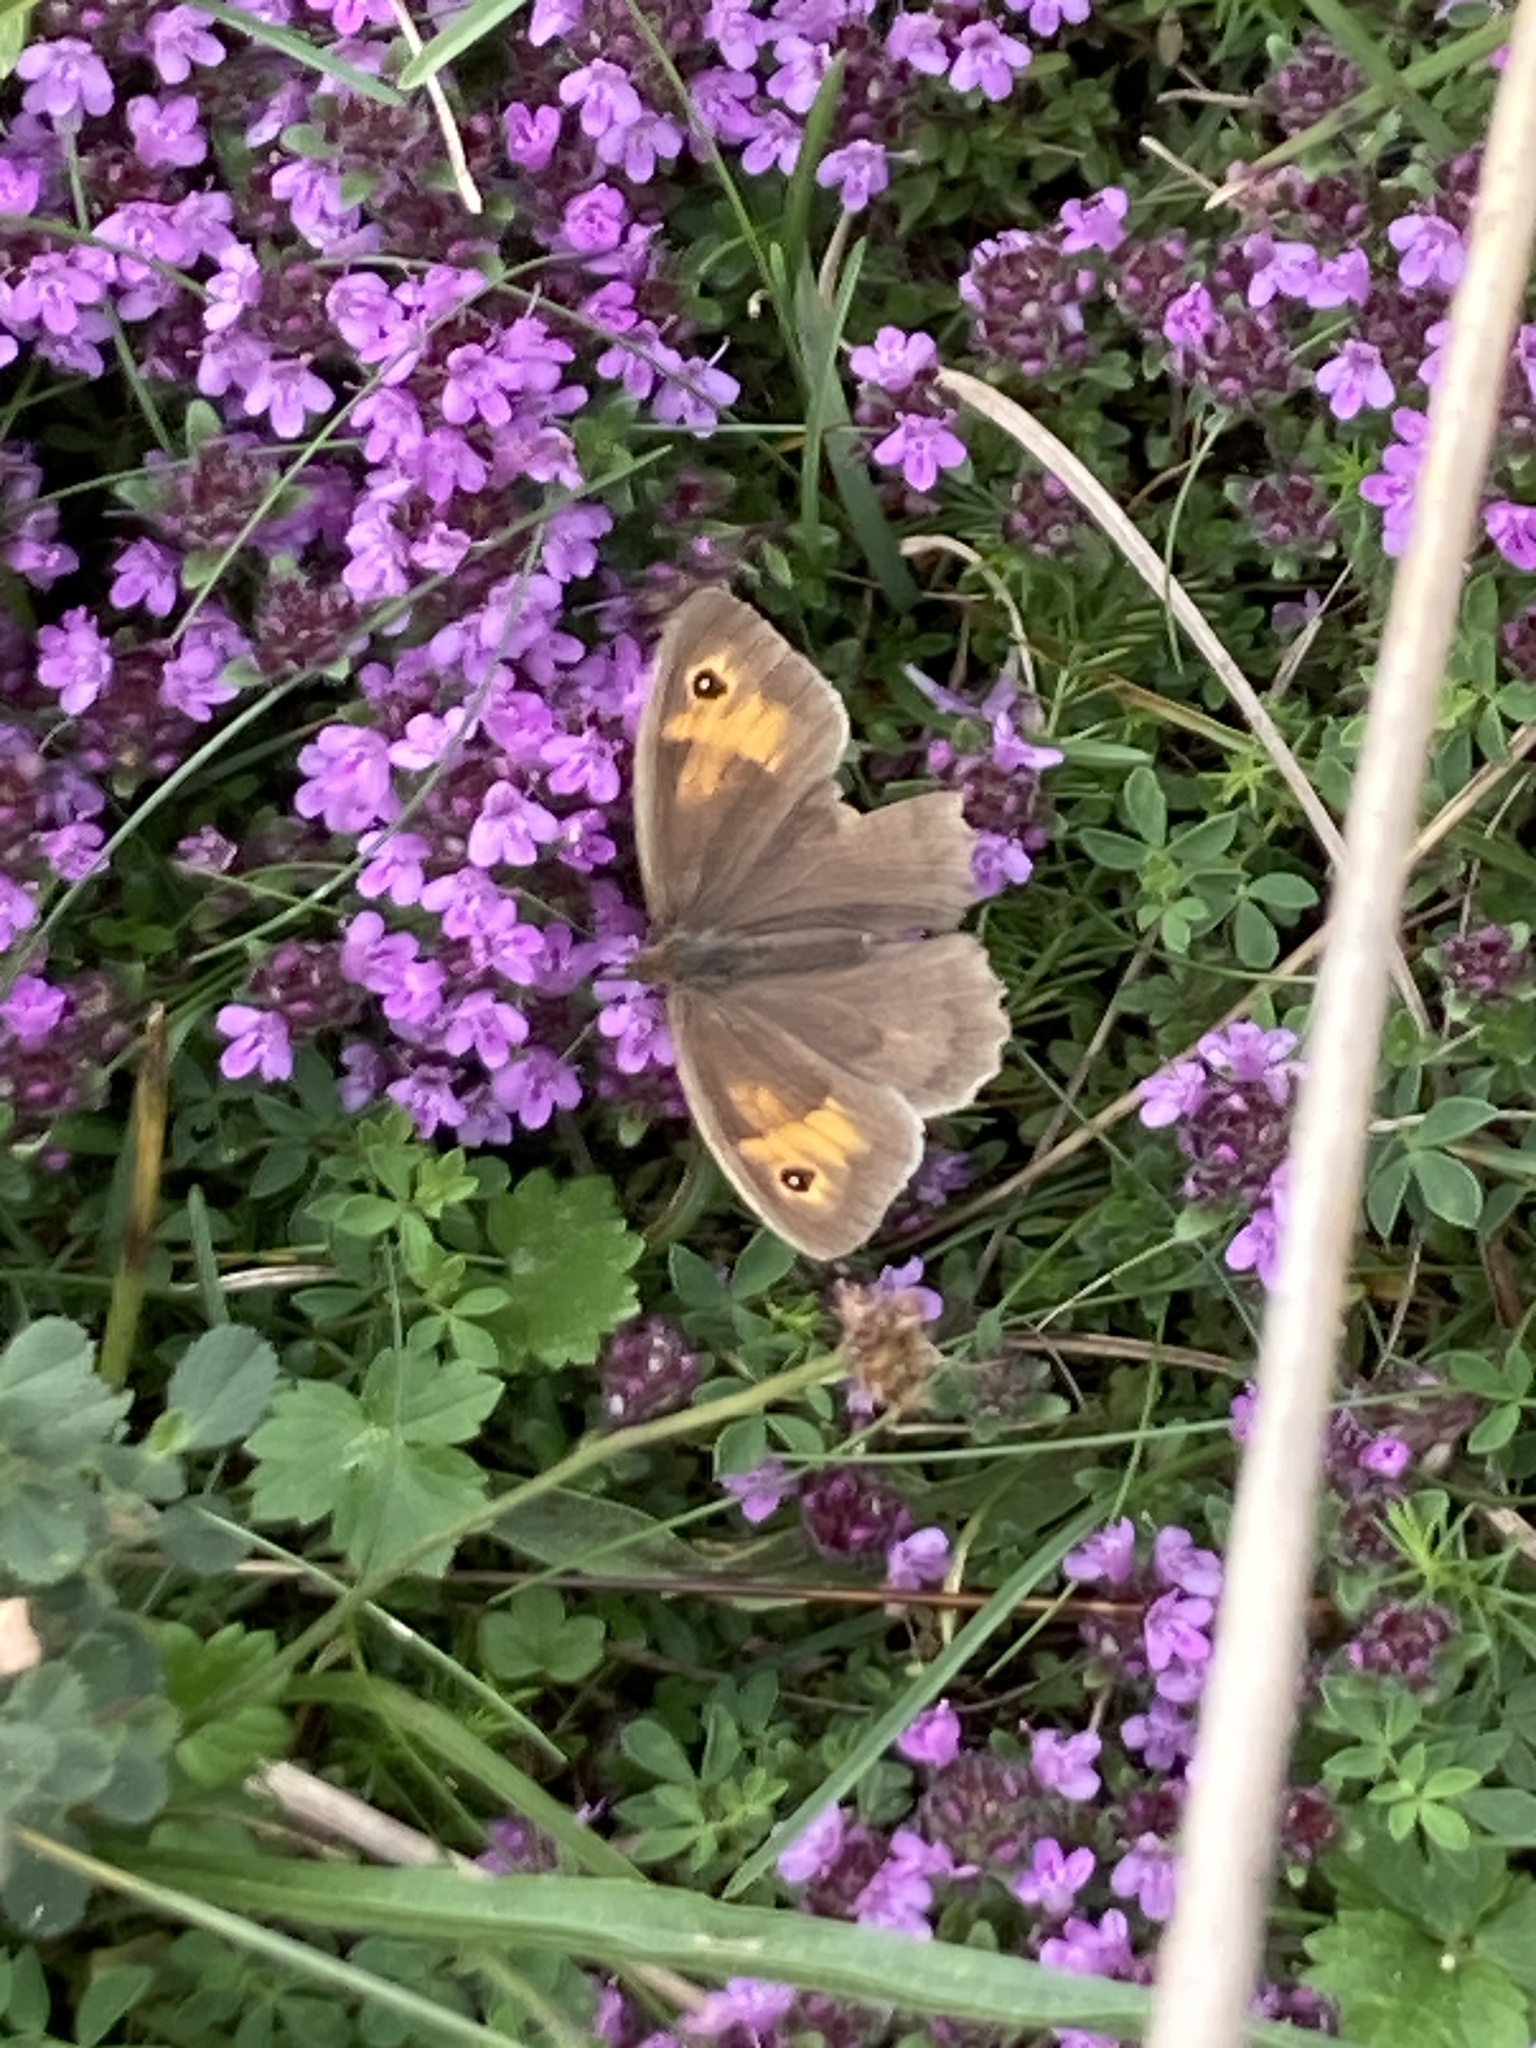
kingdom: Animalia
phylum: Arthropoda
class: Insecta
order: Lepidoptera
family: Nymphalidae
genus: Maniola
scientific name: Maniola jurtina
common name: Meadow brown
